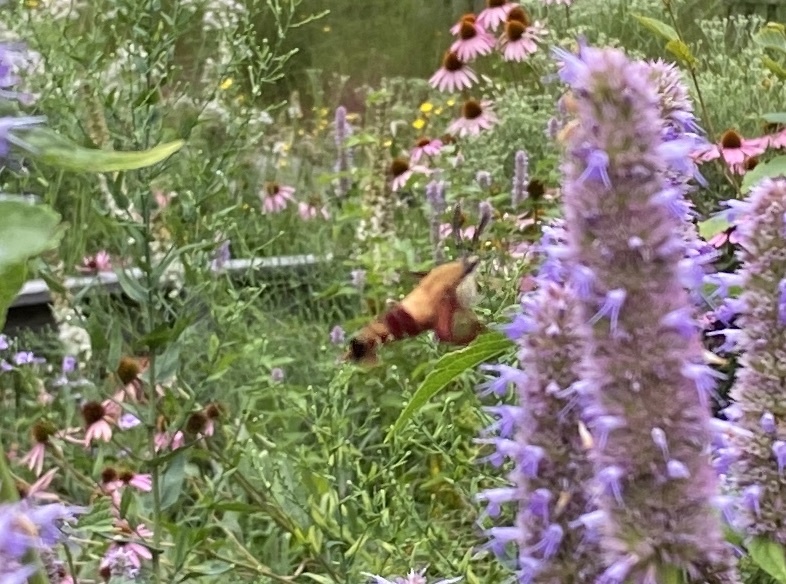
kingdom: Animalia
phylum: Arthropoda
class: Insecta
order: Lepidoptera
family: Sphingidae
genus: Hemaris
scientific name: Hemaris thysbe
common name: Common clear-wing
